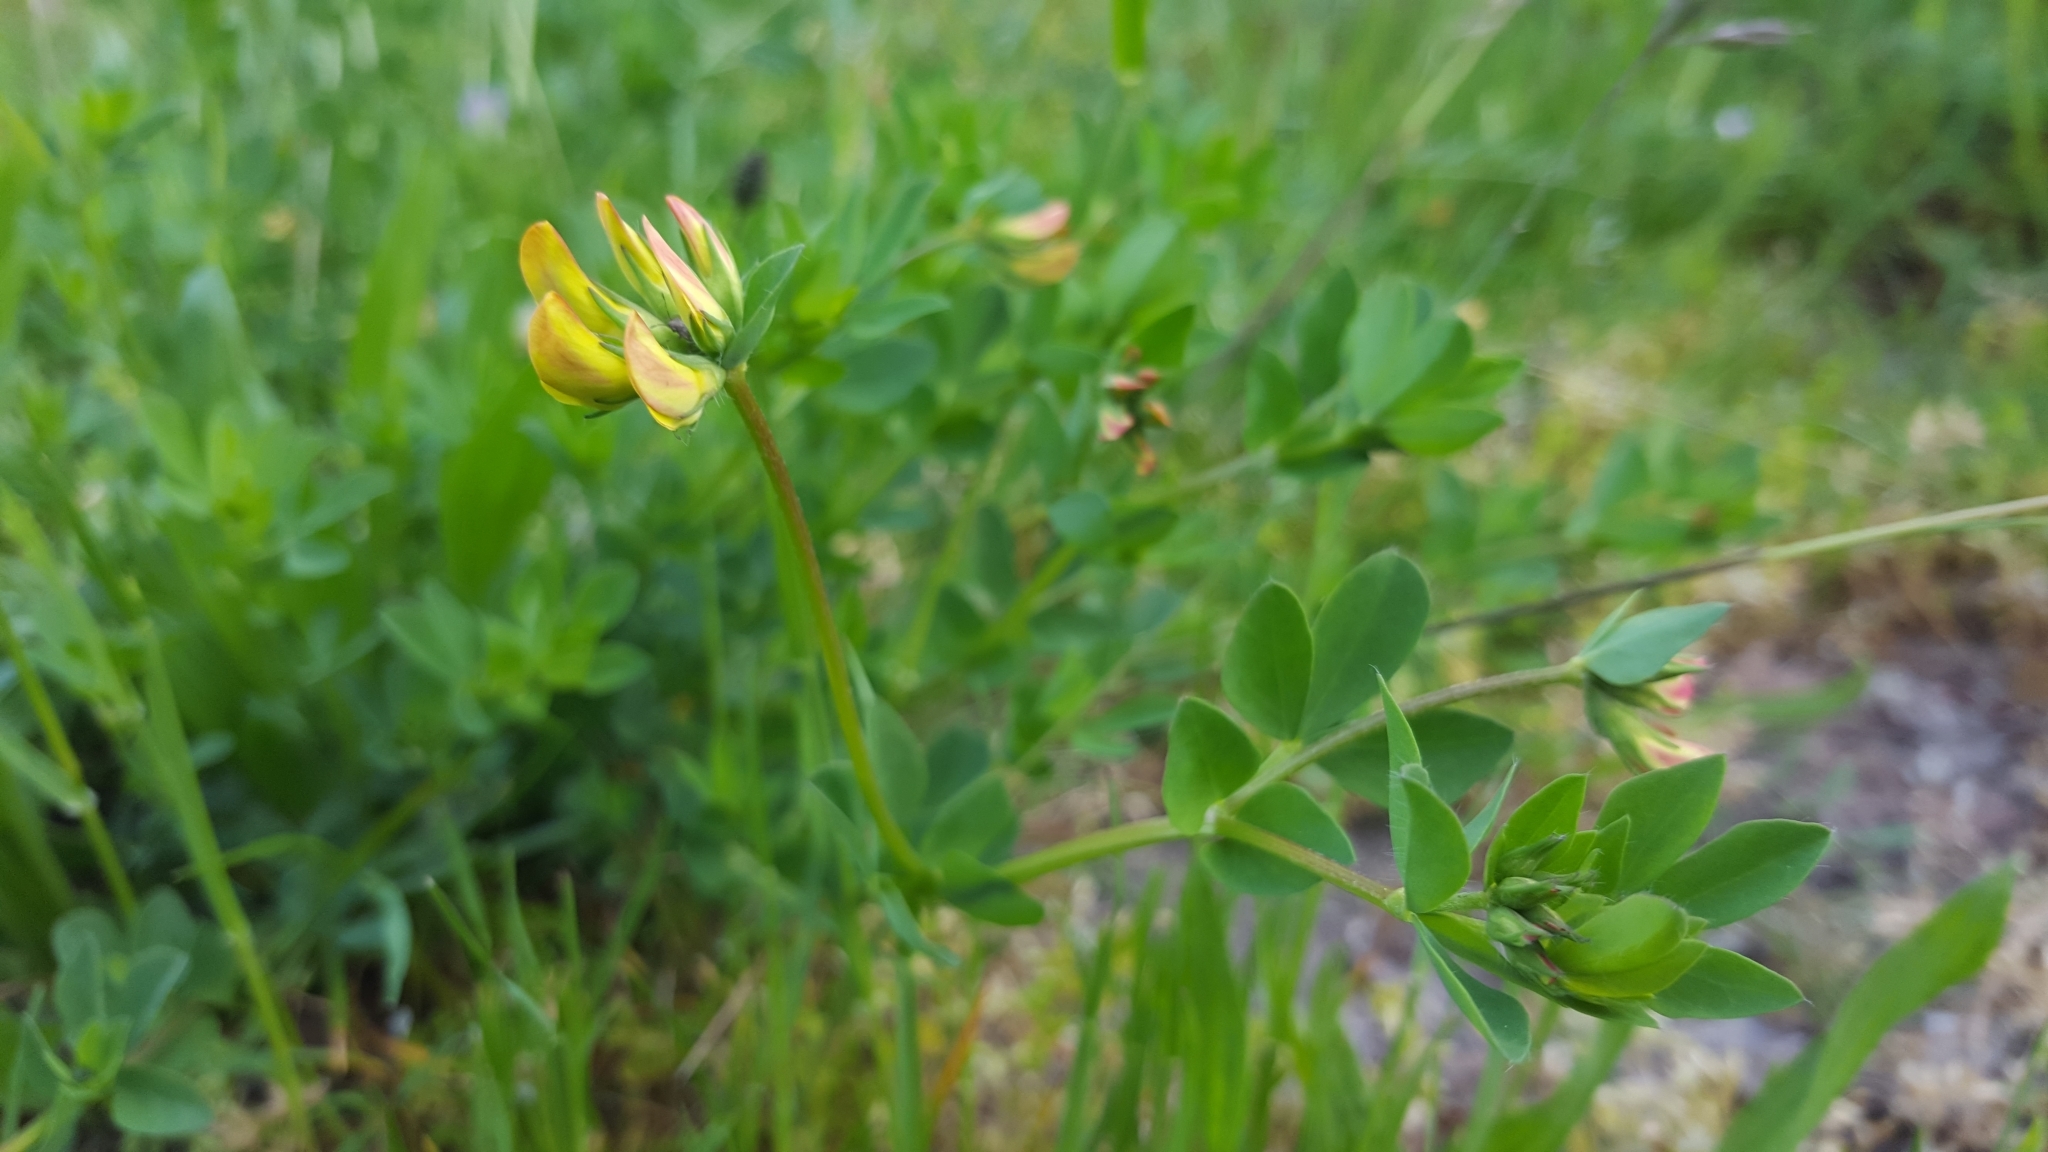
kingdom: Plantae
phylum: Tracheophyta
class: Magnoliopsida
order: Fabales
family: Fabaceae
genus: Lotus
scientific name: Lotus corniculatus
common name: Common bird's-foot-trefoil
